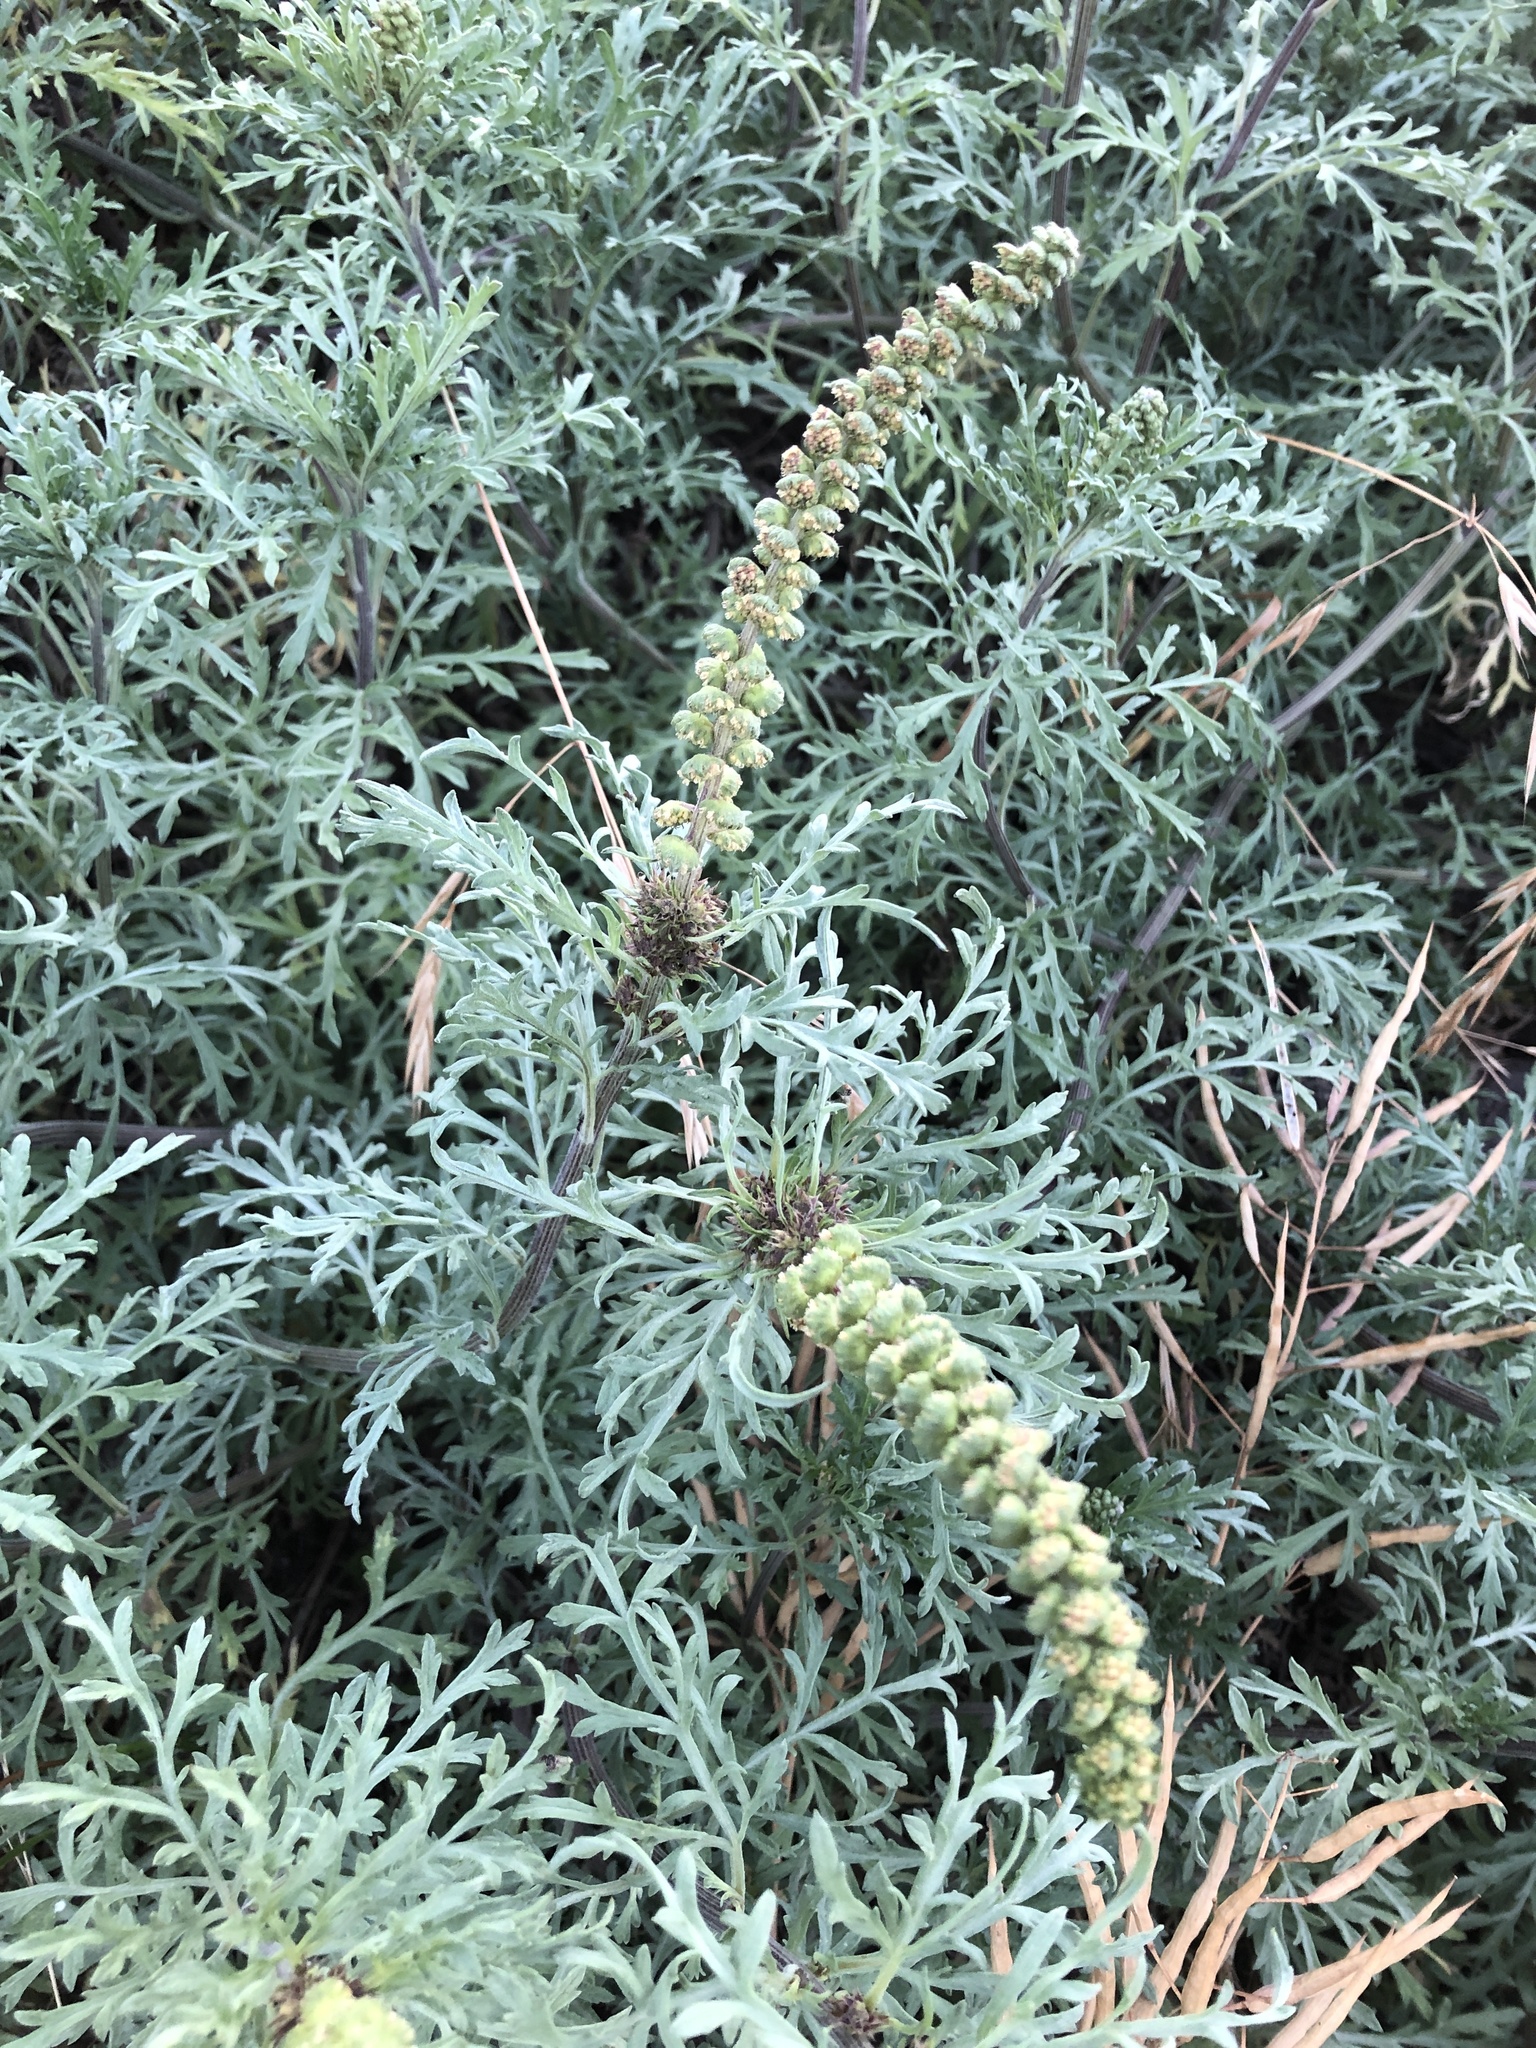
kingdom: Plantae
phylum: Tracheophyta
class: Magnoliopsida
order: Asterales
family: Asteraceae
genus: Ambrosia
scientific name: Ambrosia chamissonis
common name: Beachbur
